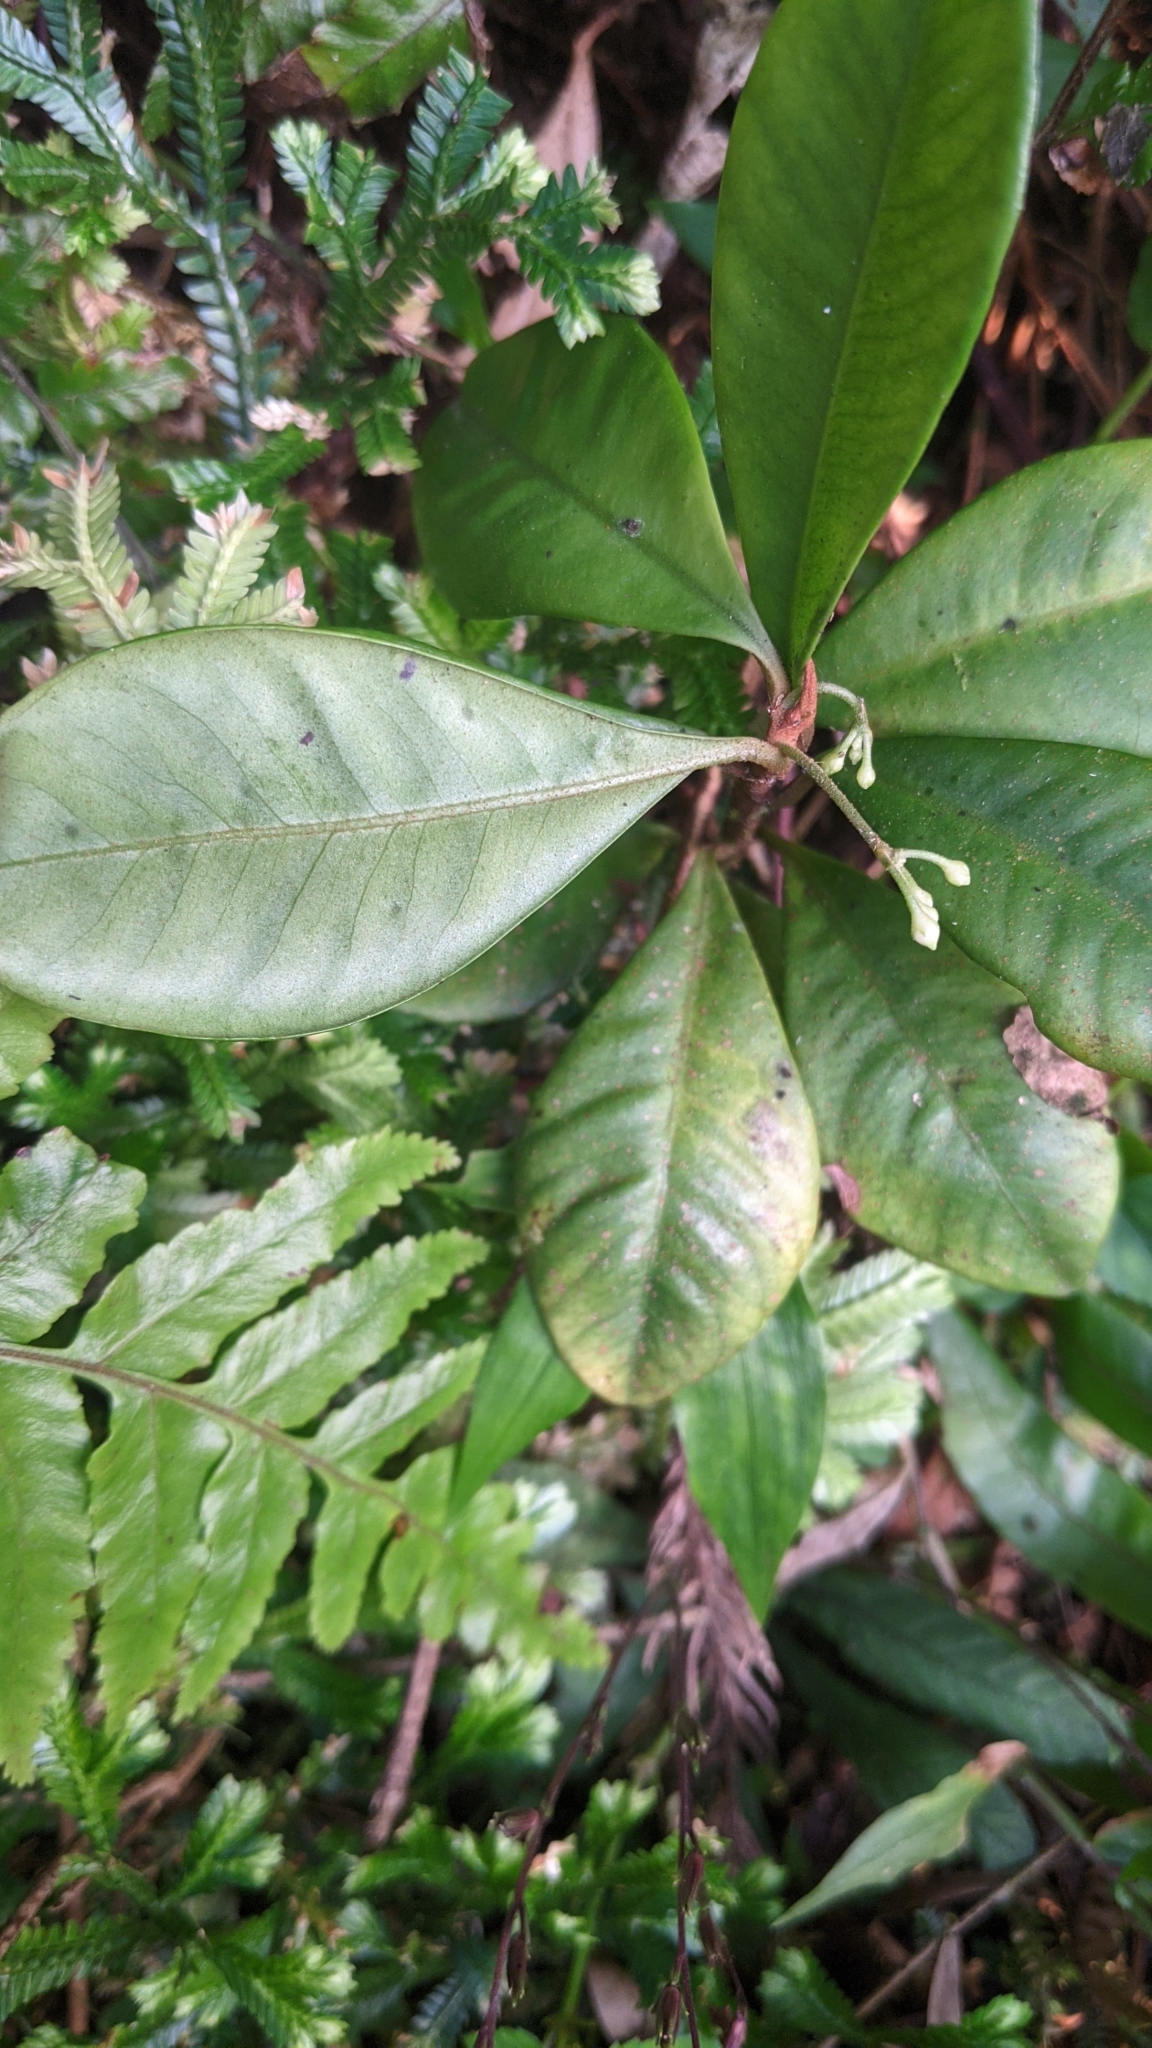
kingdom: Plantae
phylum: Tracheophyta
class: Magnoliopsida
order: Ericales
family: Primulaceae
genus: Ardisia
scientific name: Ardisia cymosa
